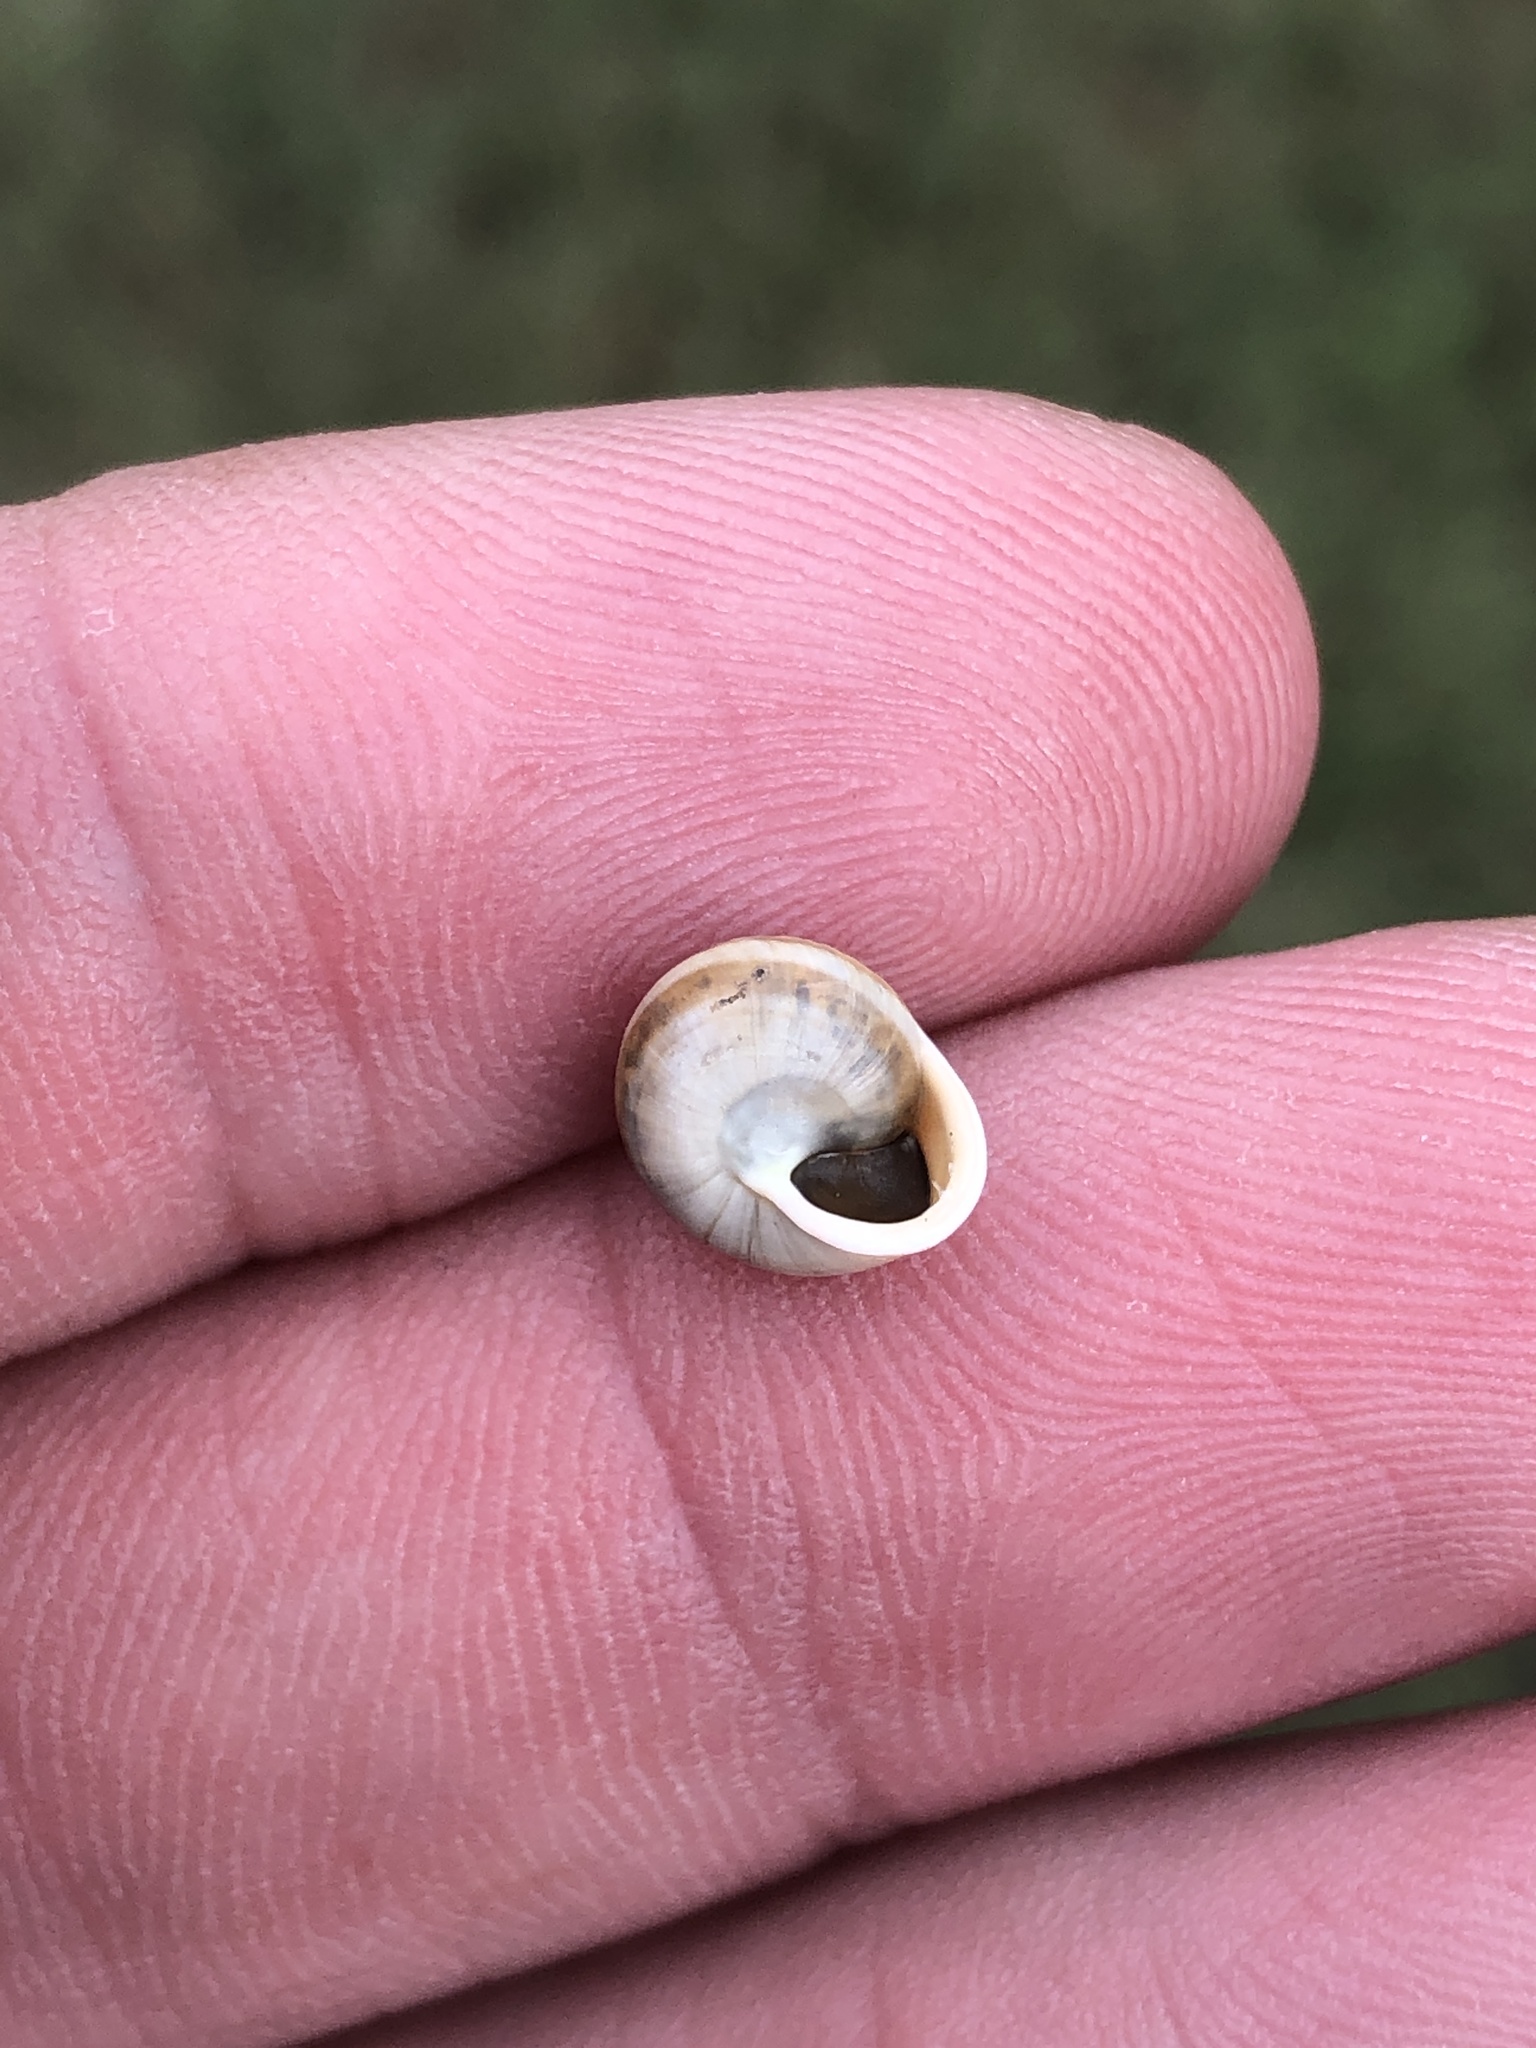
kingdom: Animalia
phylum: Mollusca
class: Gastropoda
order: Cycloneritida
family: Helicinidae
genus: Helicina
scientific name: Helicina orbiculata
